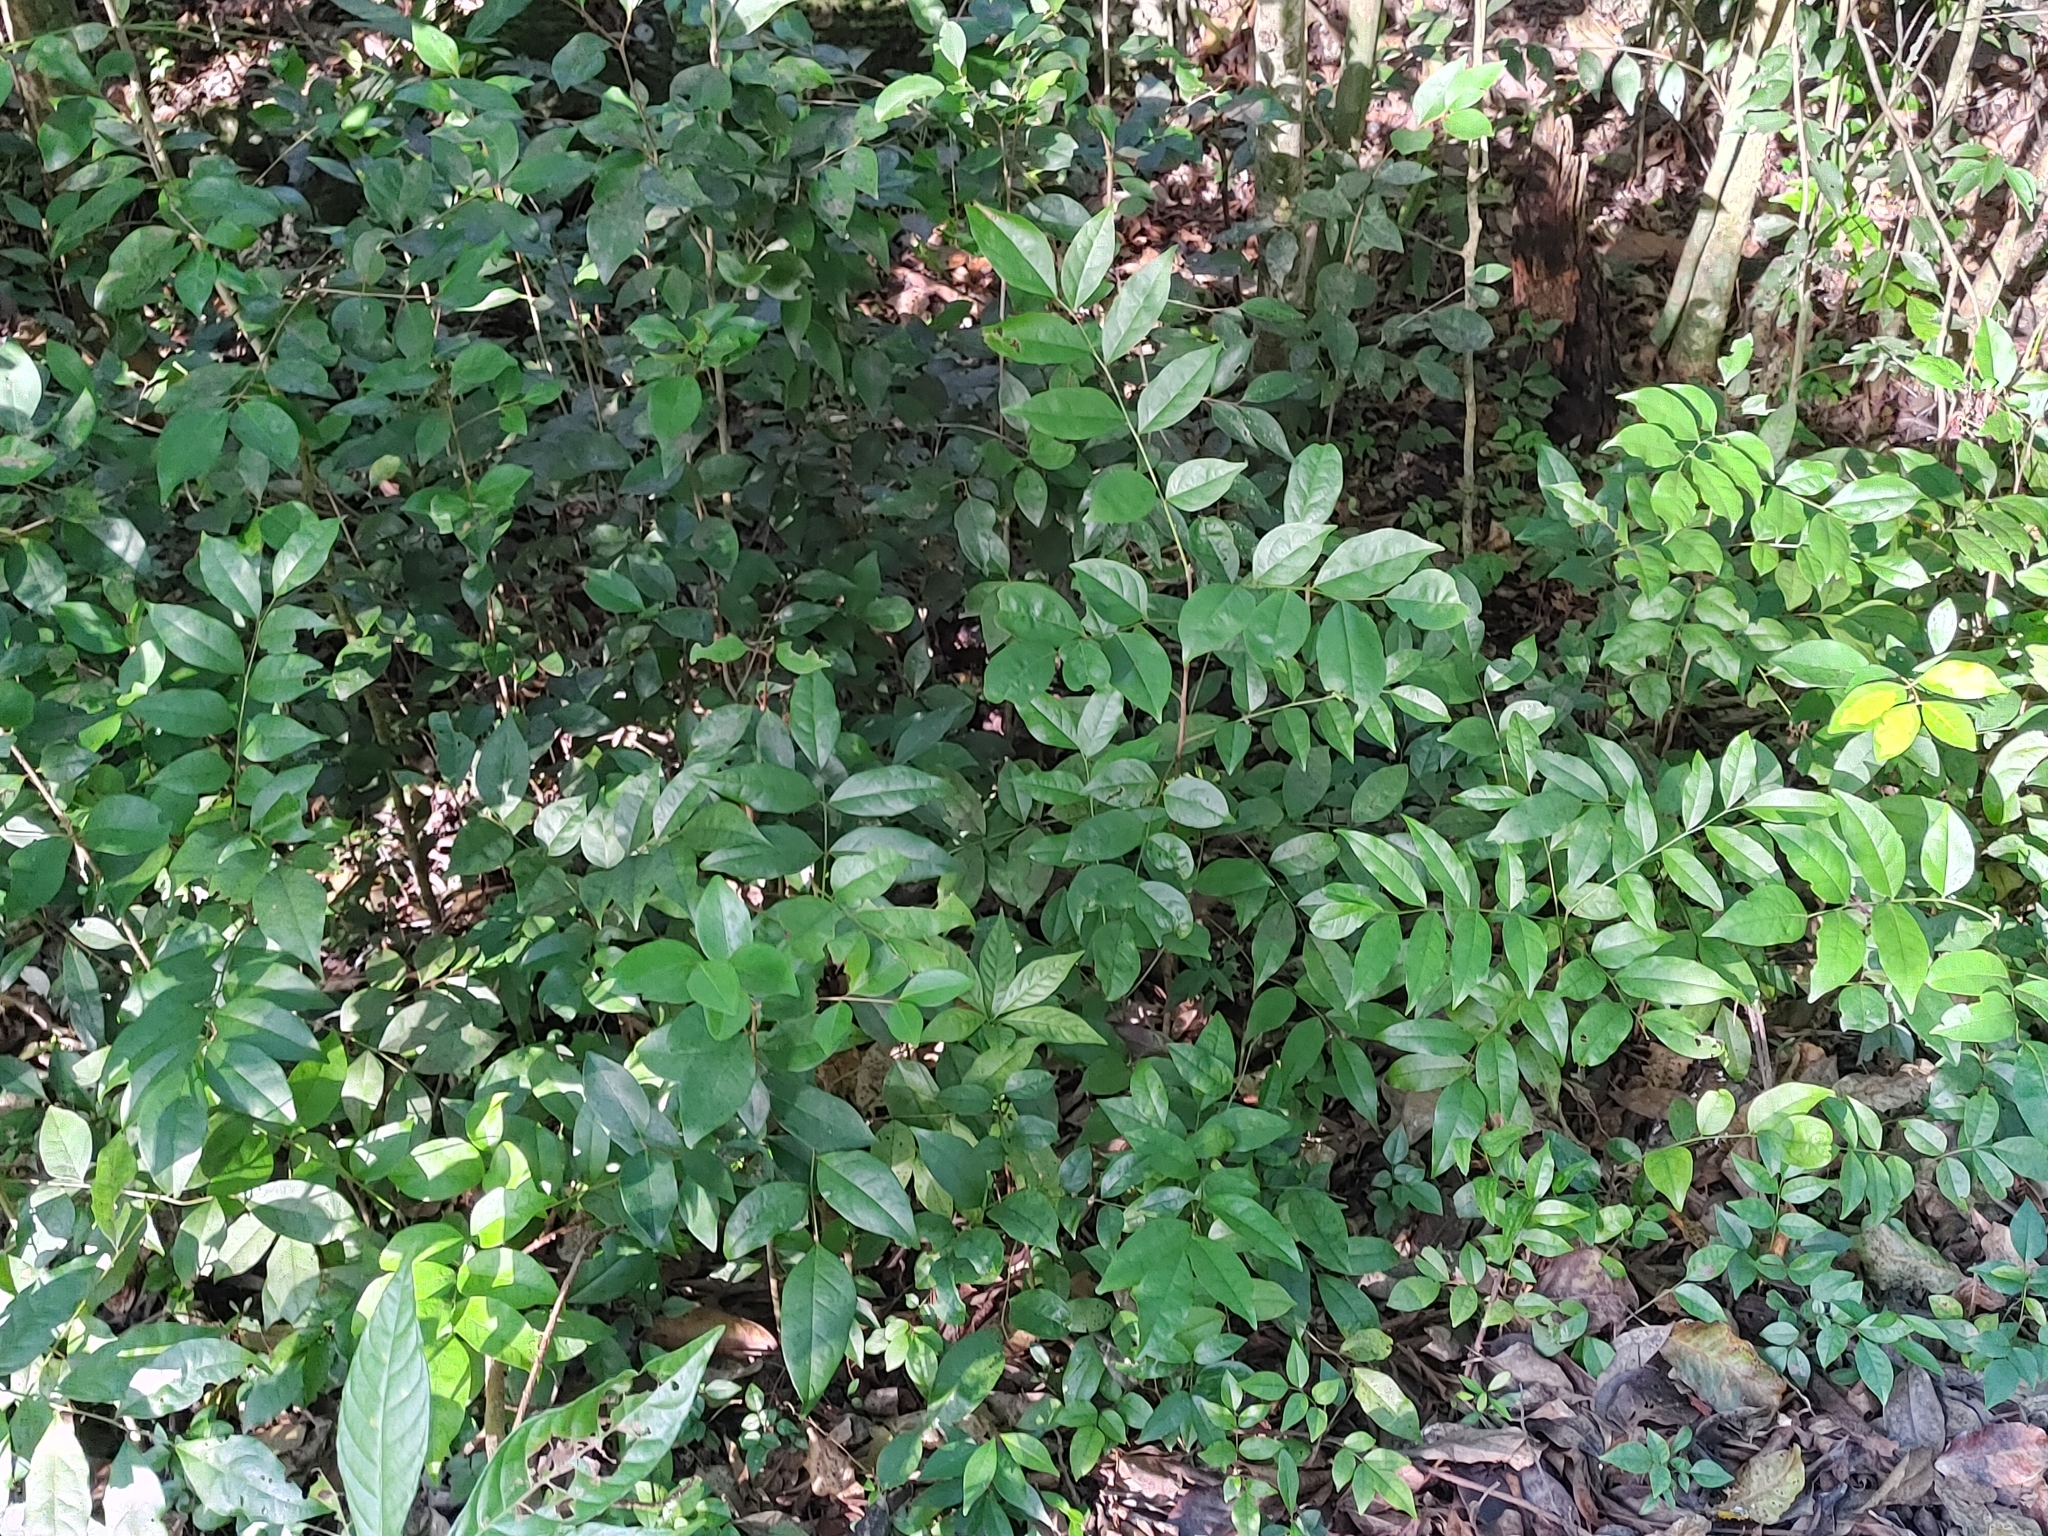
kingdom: Plantae
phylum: Tracheophyta
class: Magnoliopsida
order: Picramniales
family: Picramniaceae
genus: Picramnia
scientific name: Picramnia pentandra
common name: Florida bitterbush
